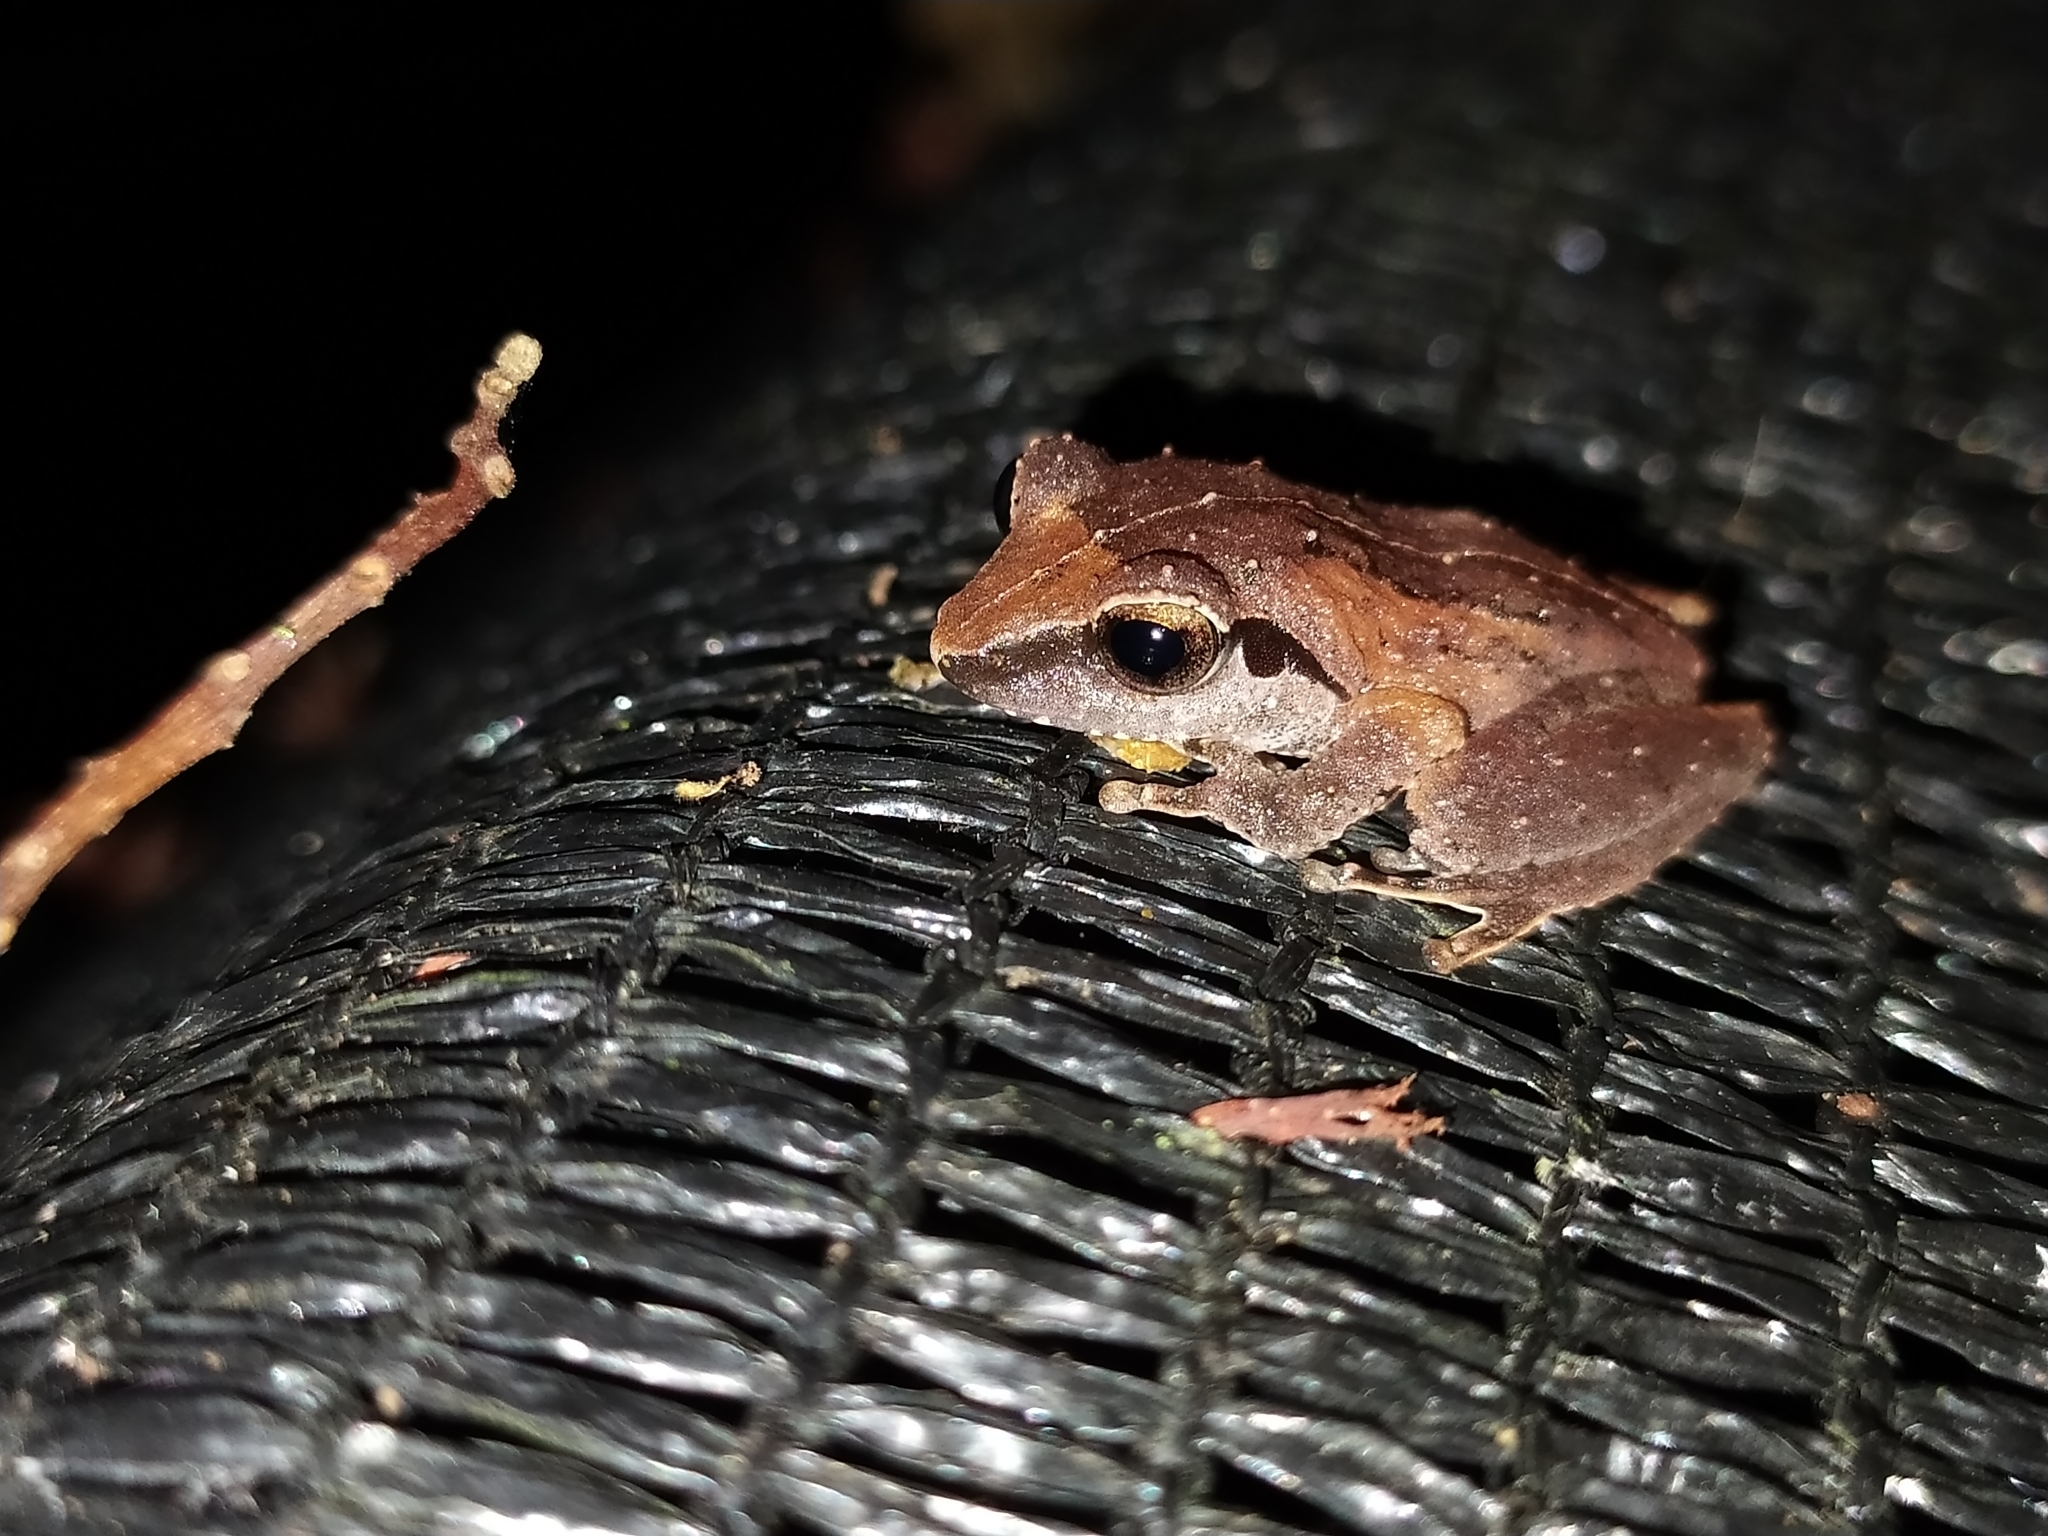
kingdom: Animalia
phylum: Chordata
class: Amphibia
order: Anura
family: Rhacophoridae
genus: Pseudophilautus
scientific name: Pseudophilautus wynaadensis
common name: Dark-eared bush frog
